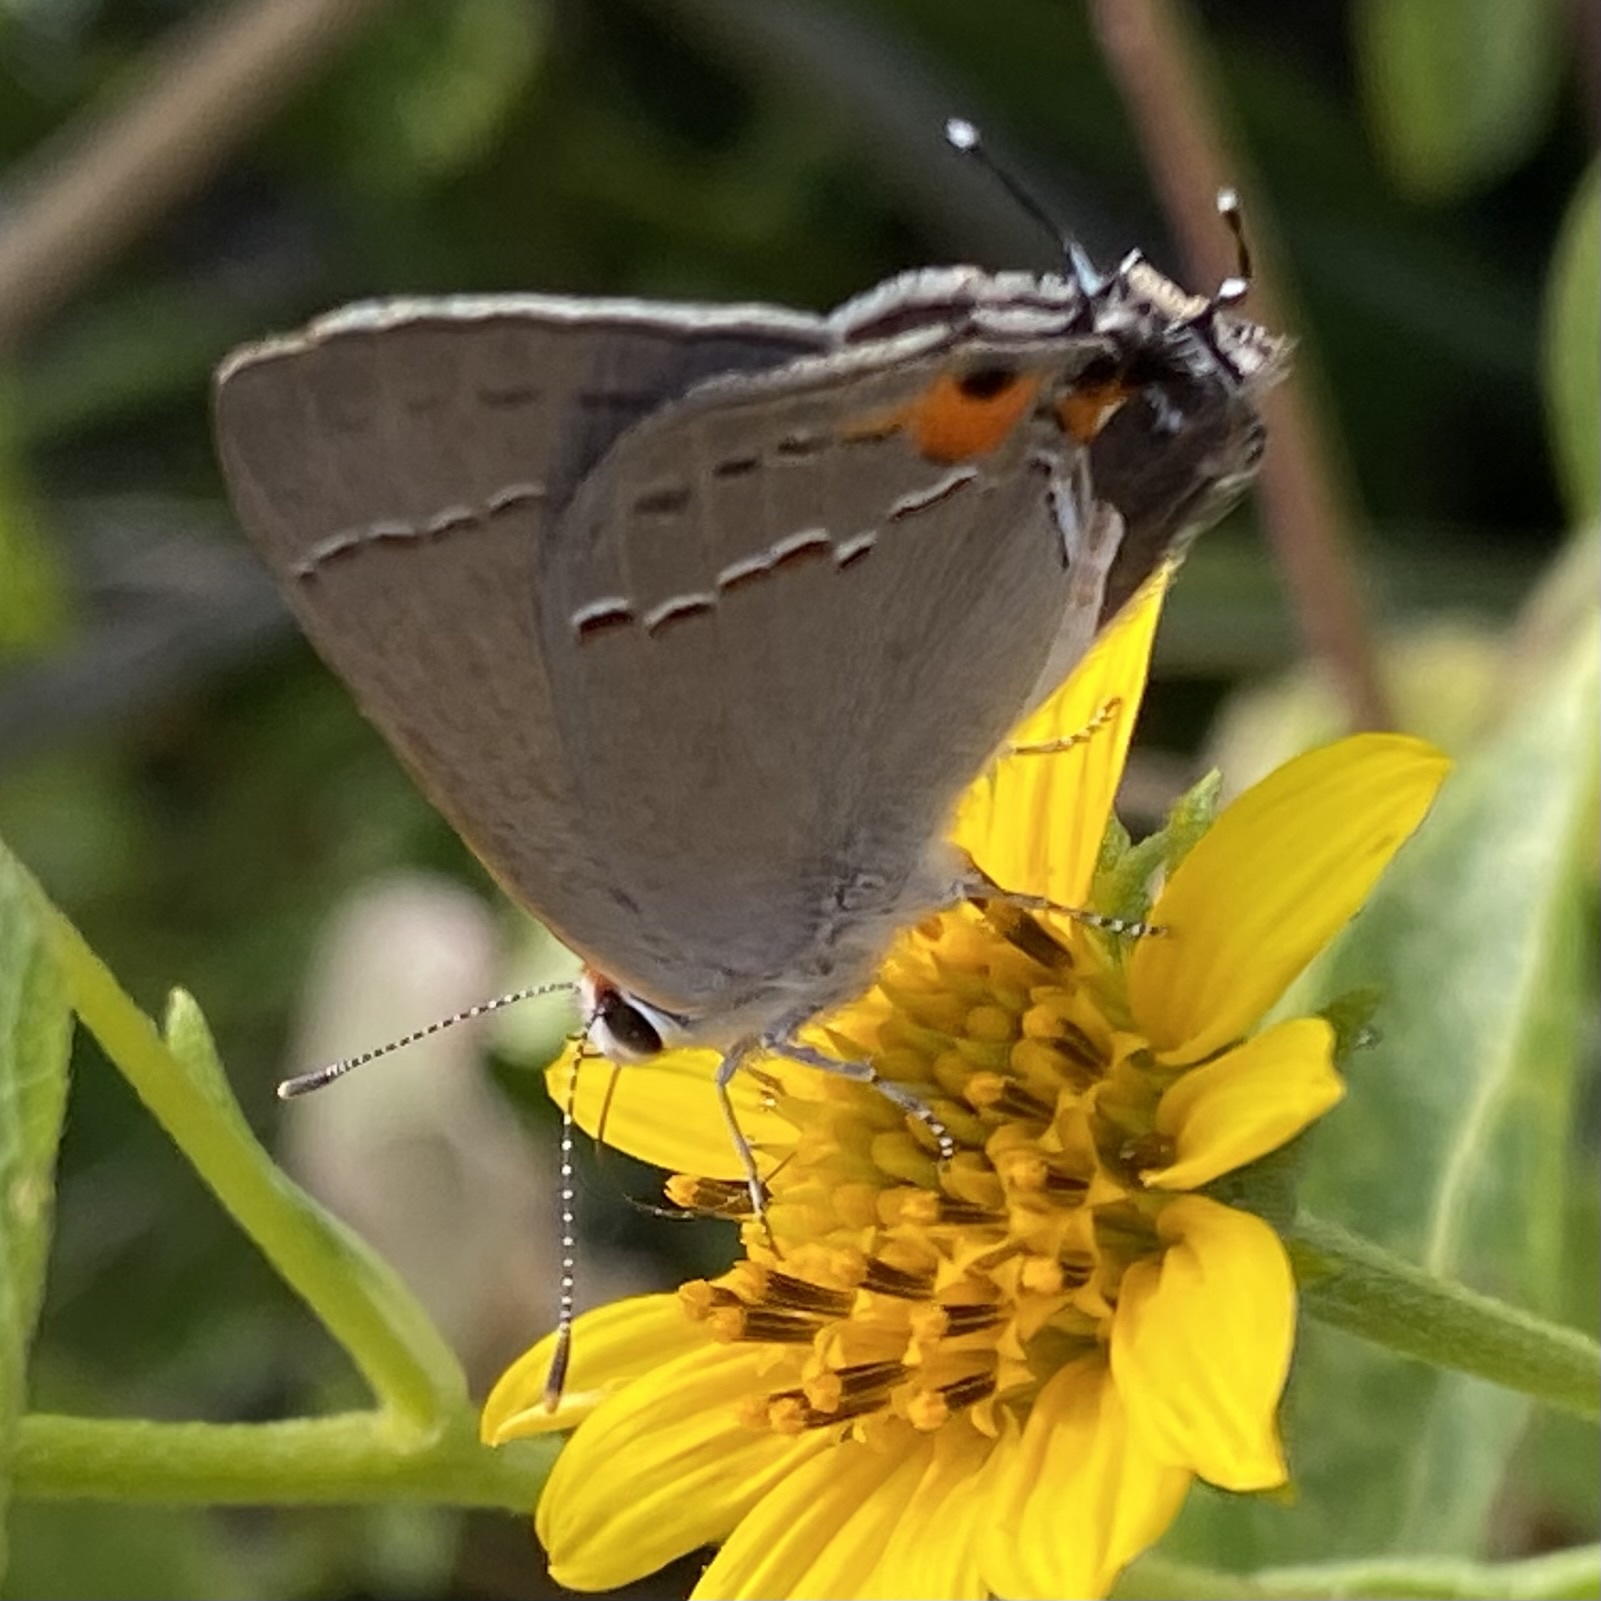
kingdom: Animalia
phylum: Arthropoda
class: Insecta
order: Lepidoptera
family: Lycaenidae
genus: Strymon
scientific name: Strymon melinus
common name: Gray hairstreak
